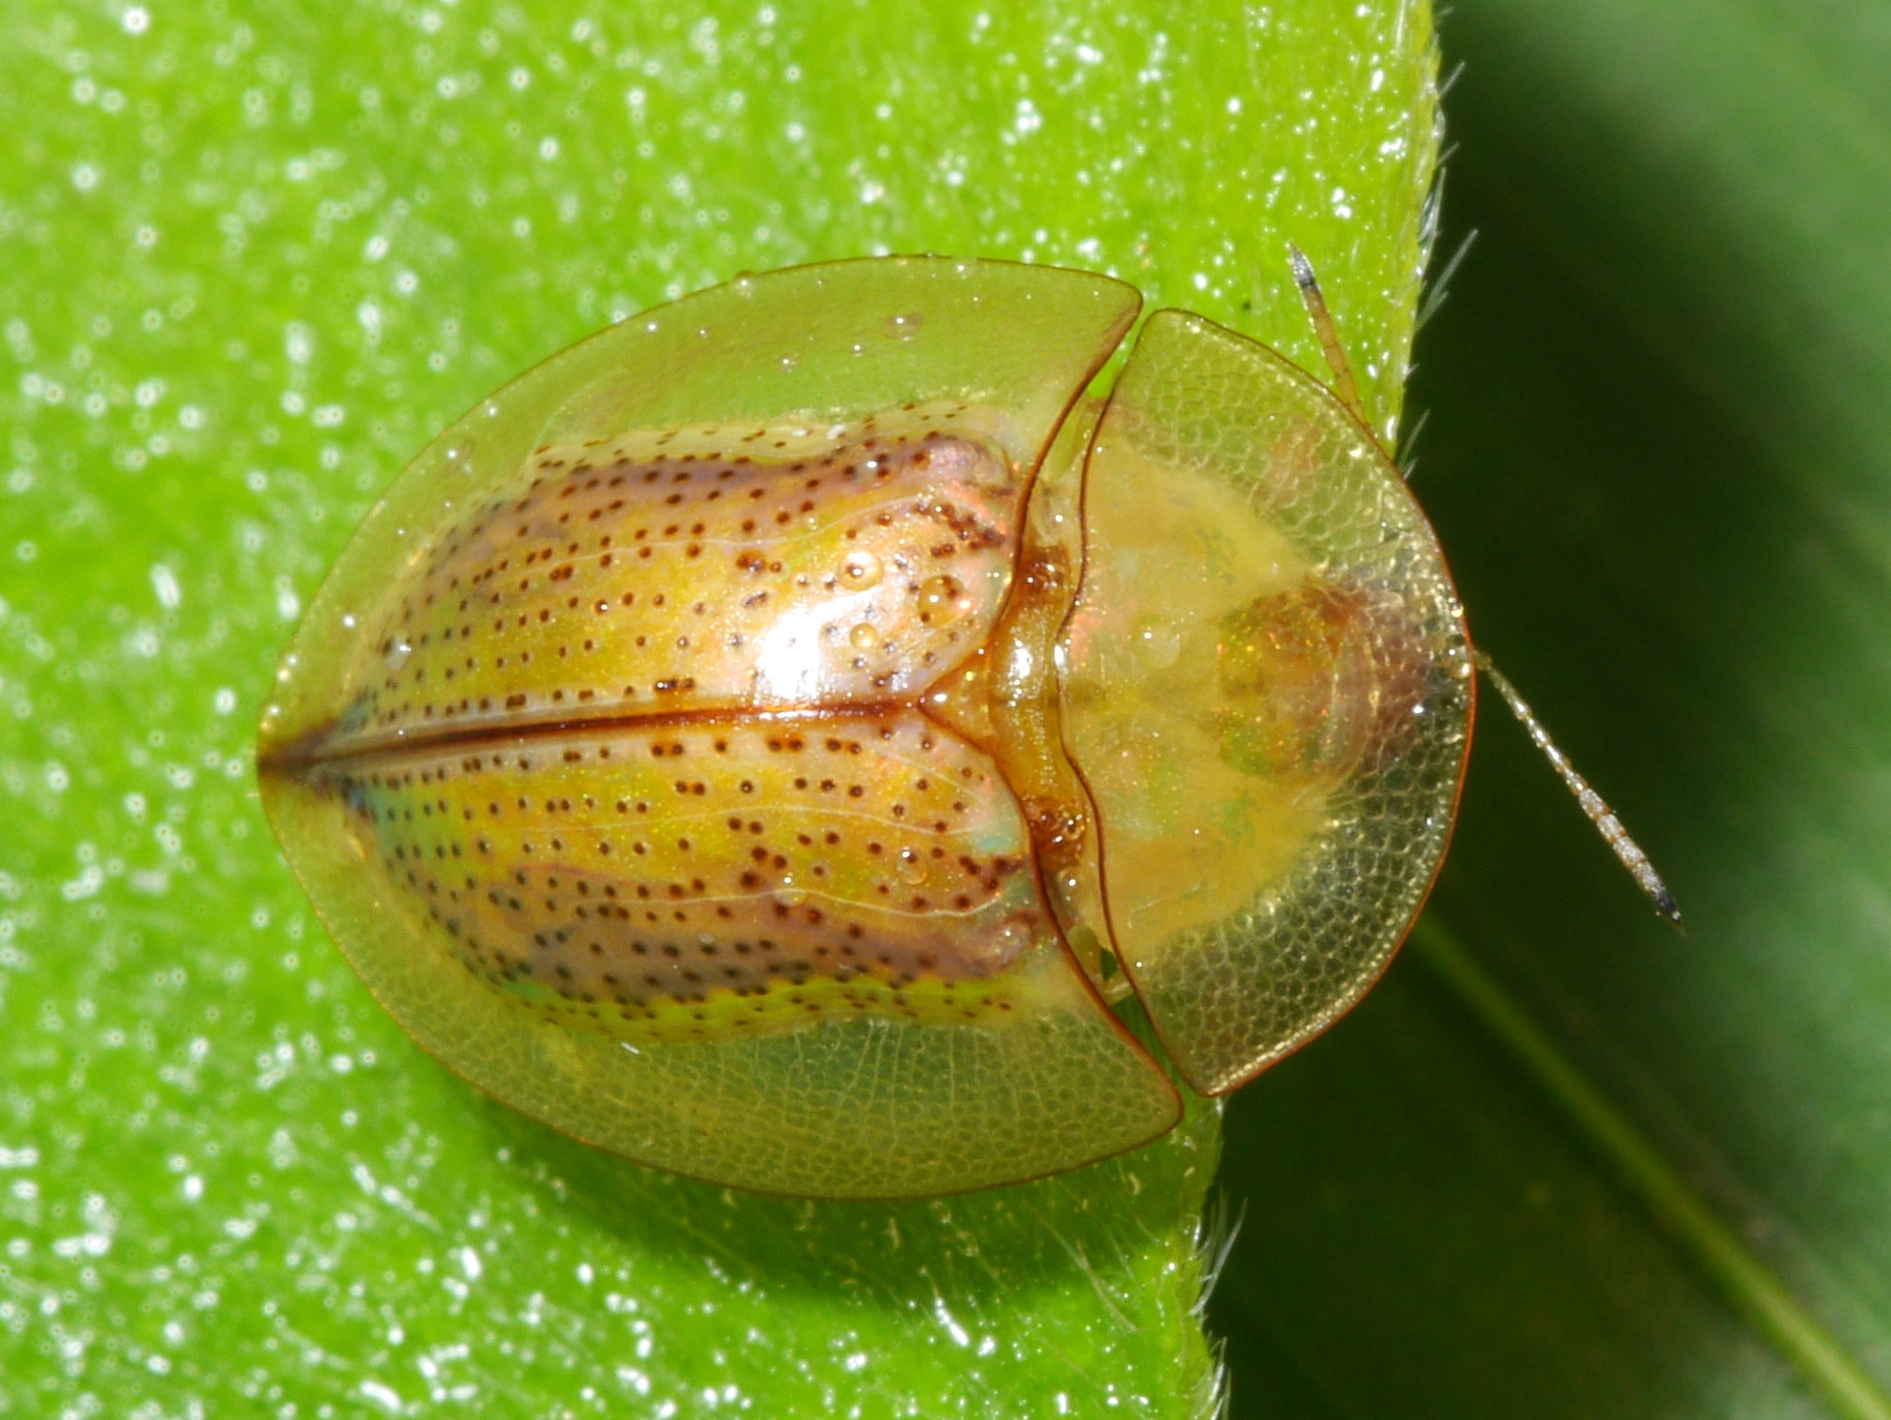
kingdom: Animalia
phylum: Arthropoda
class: Insecta
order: Coleoptera
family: Chrysomelidae
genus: Aspidimorpha
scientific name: Aspidimorpha obovata
